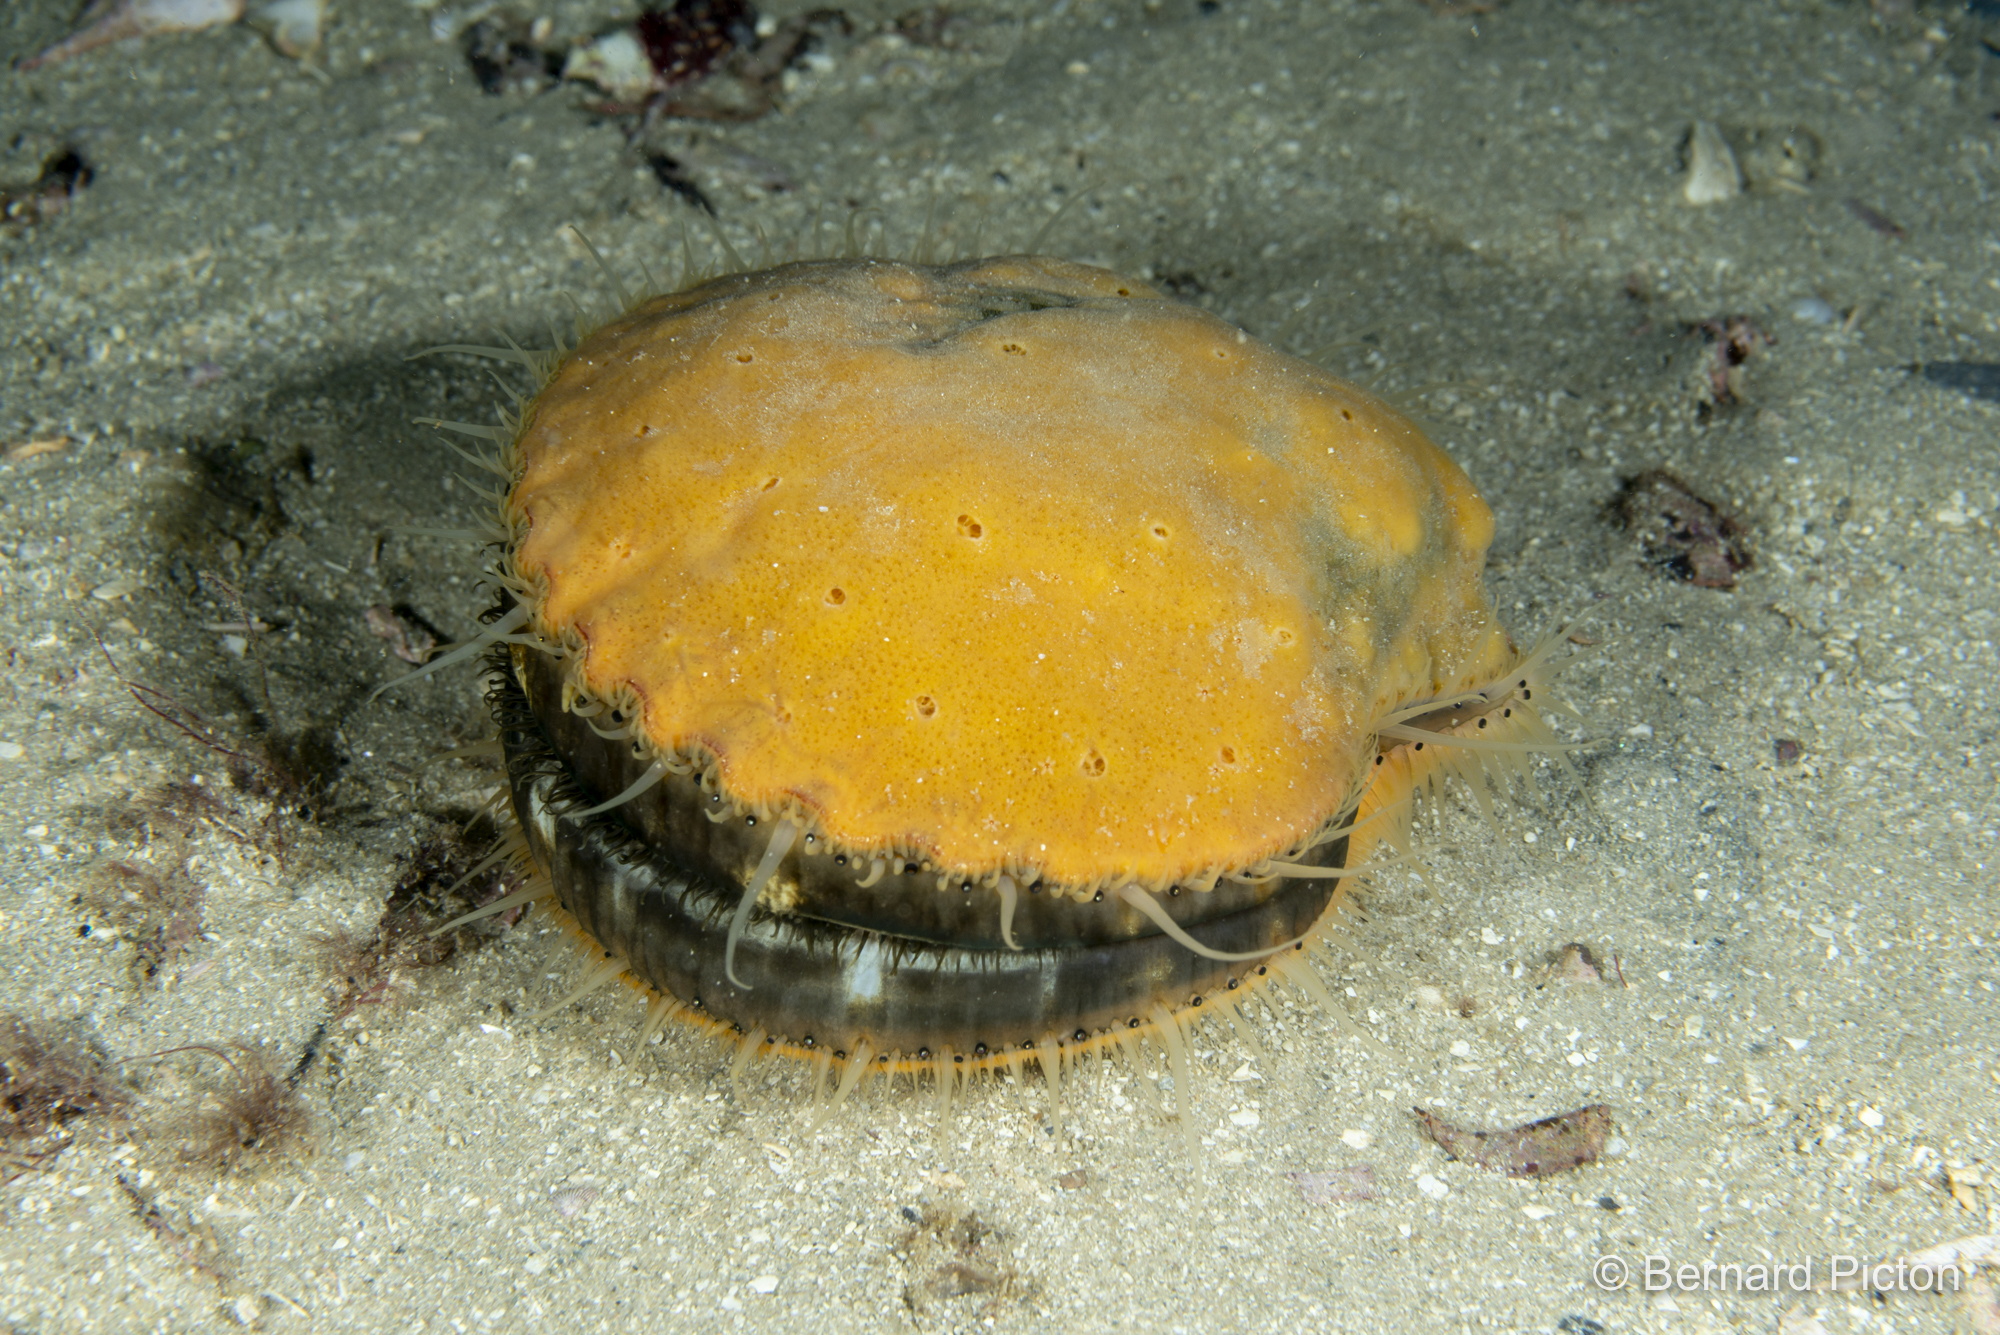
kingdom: Animalia
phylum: Mollusca
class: Bivalvia
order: Pectinida
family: Pectinidae
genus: Aequipecten
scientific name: Aequipecten opercularis
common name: Queen scallop
